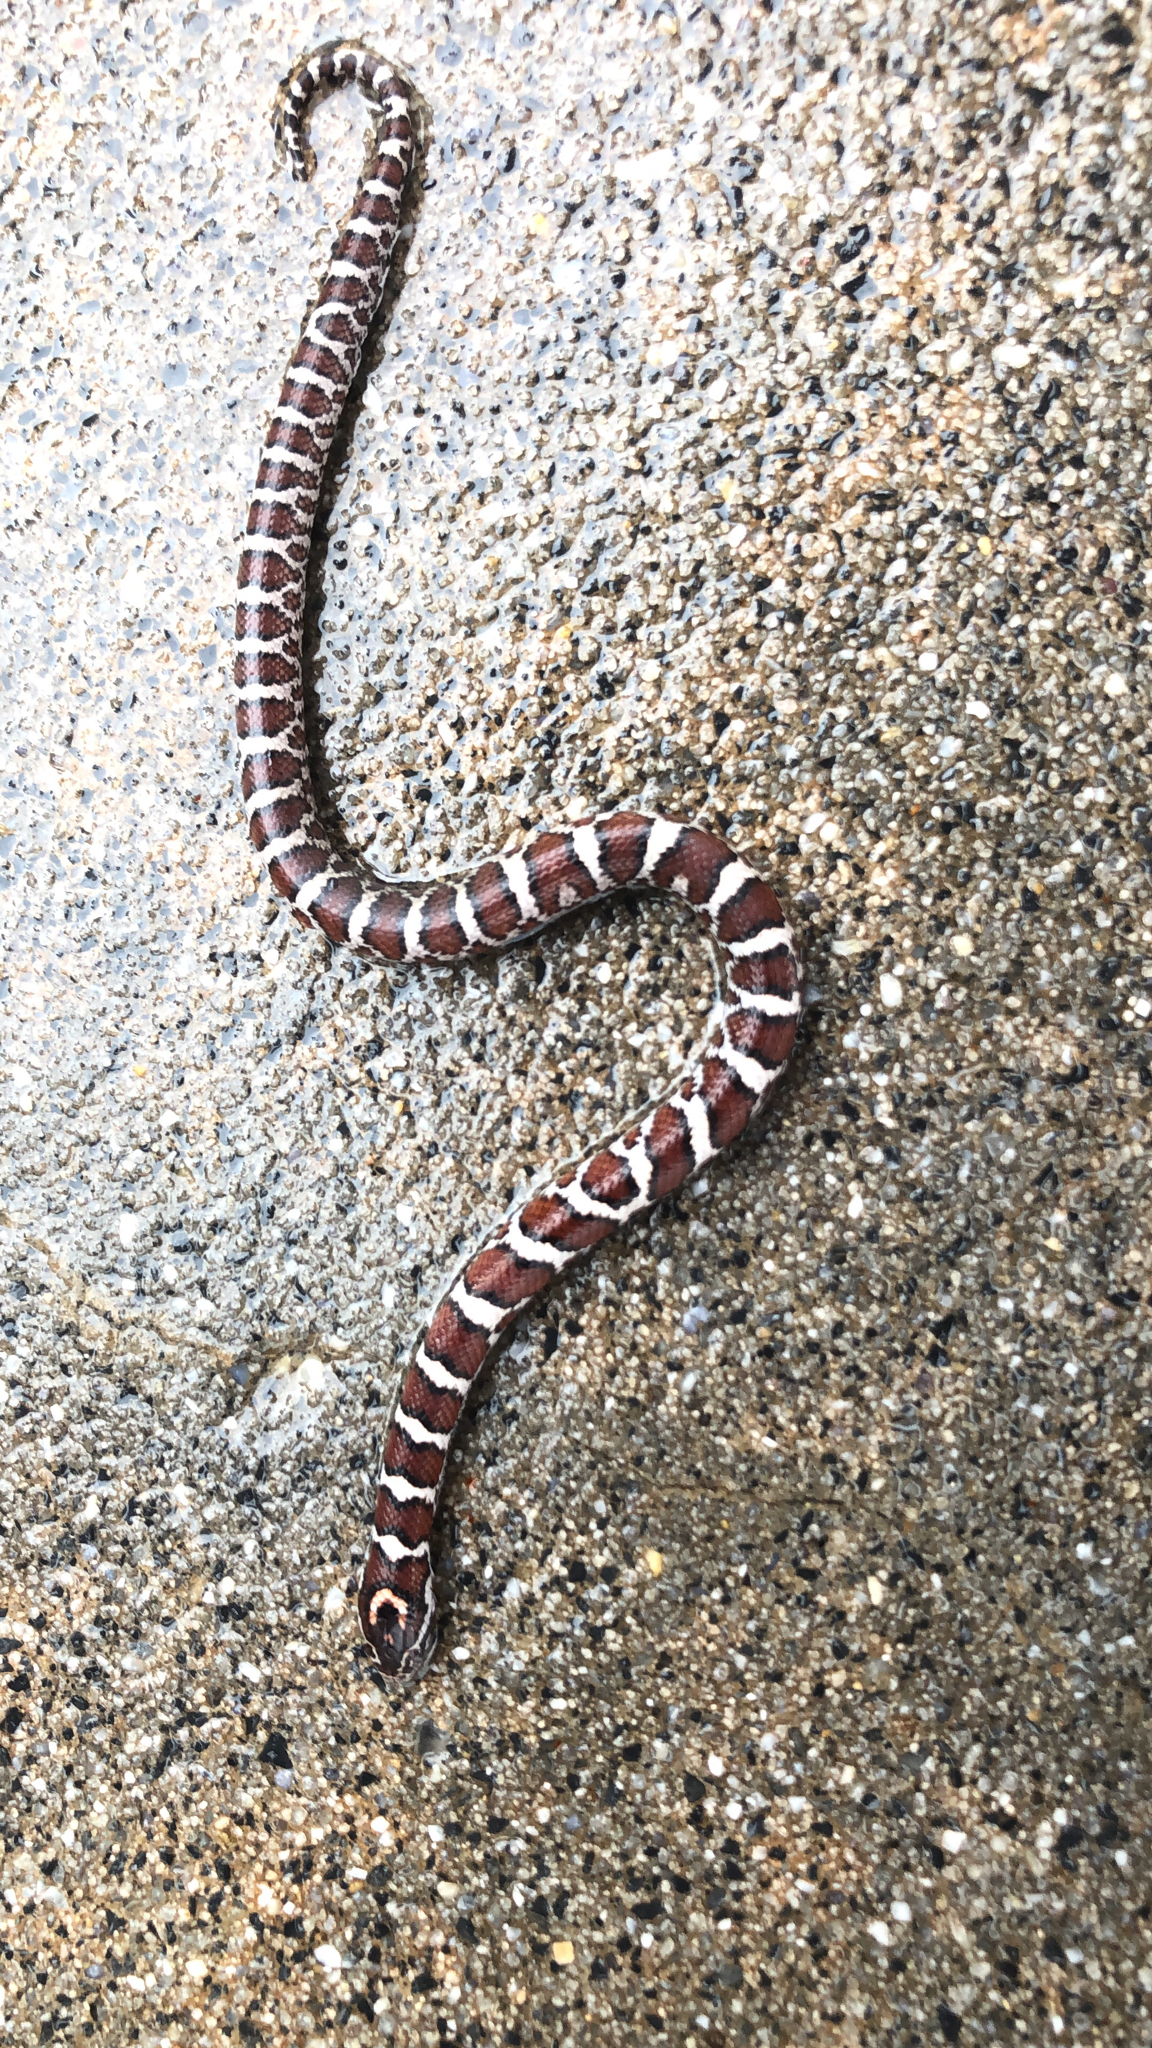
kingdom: Animalia
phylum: Chordata
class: Squamata
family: Colubridae
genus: Lampropeltis
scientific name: Lampropeltis triangulum
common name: Eastern milksnake
